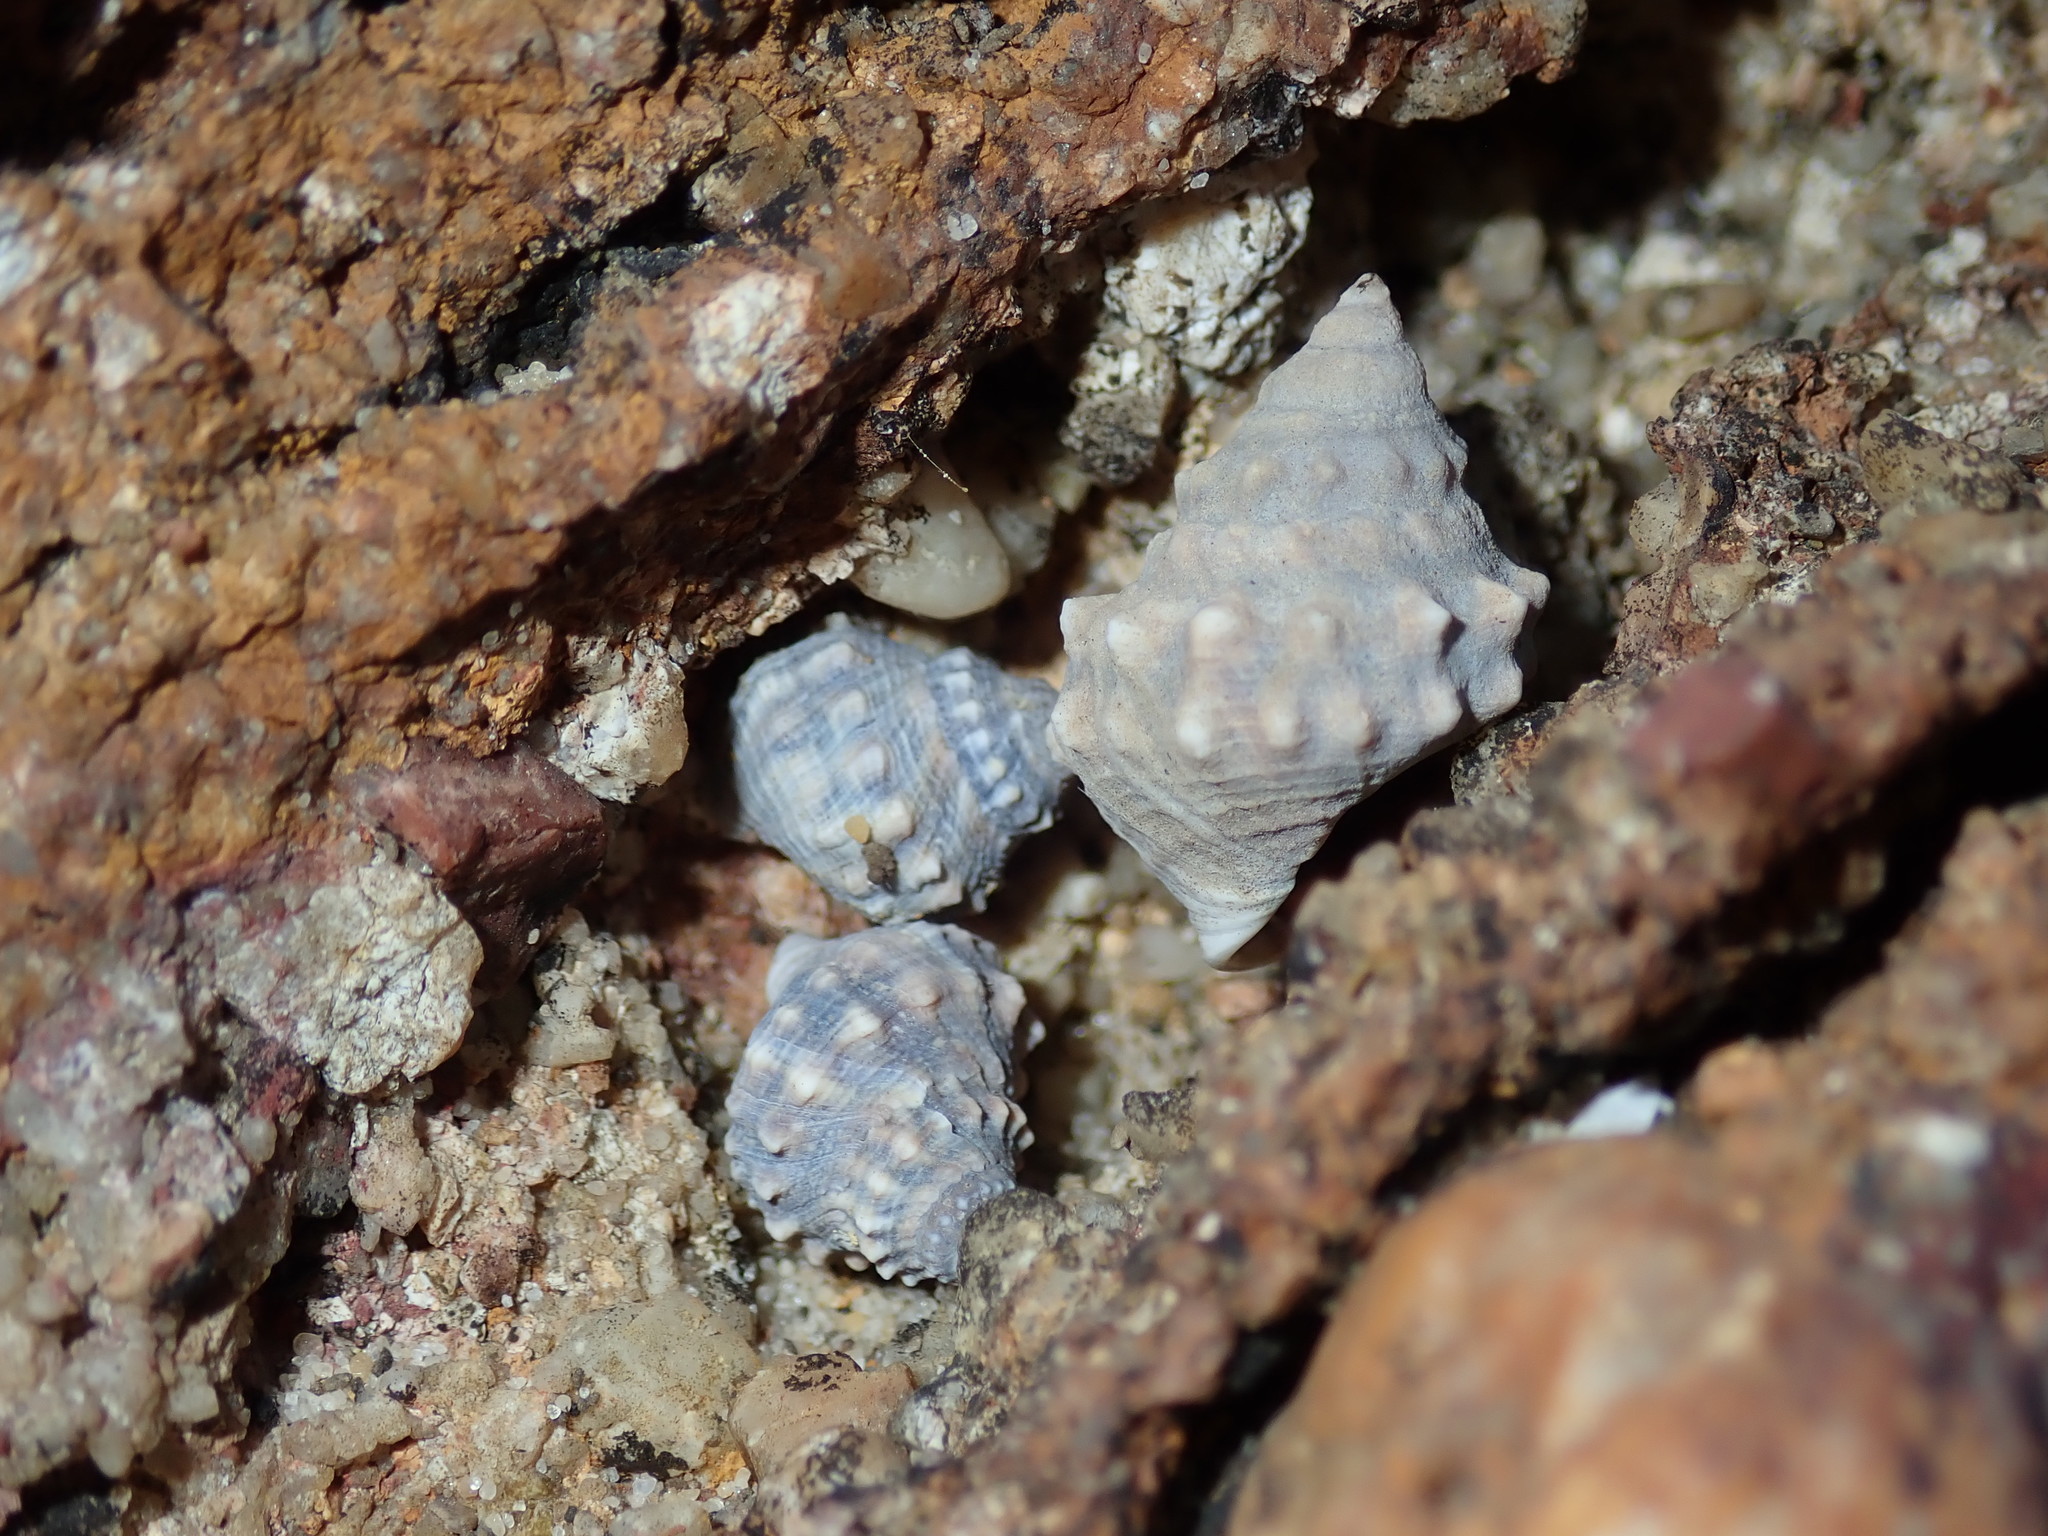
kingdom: Animalia
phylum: Mollusca
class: Gastropoda
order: Littorinimorpha
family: Littorinidae
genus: Nodilittorina
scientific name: Nodilittorina pyramidalis
